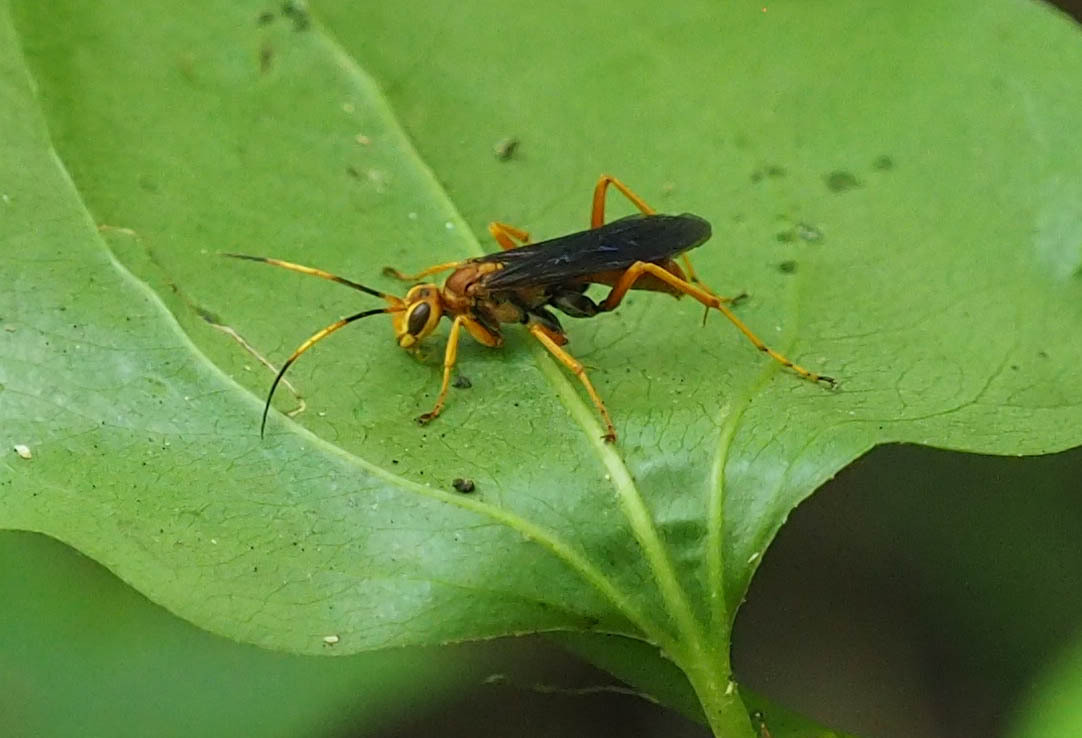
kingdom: Animalia
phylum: Arthropoda
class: Insecta
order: Hymenoptera
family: Pompilidae
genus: Priocnessus
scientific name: Priocnessus nuperus
